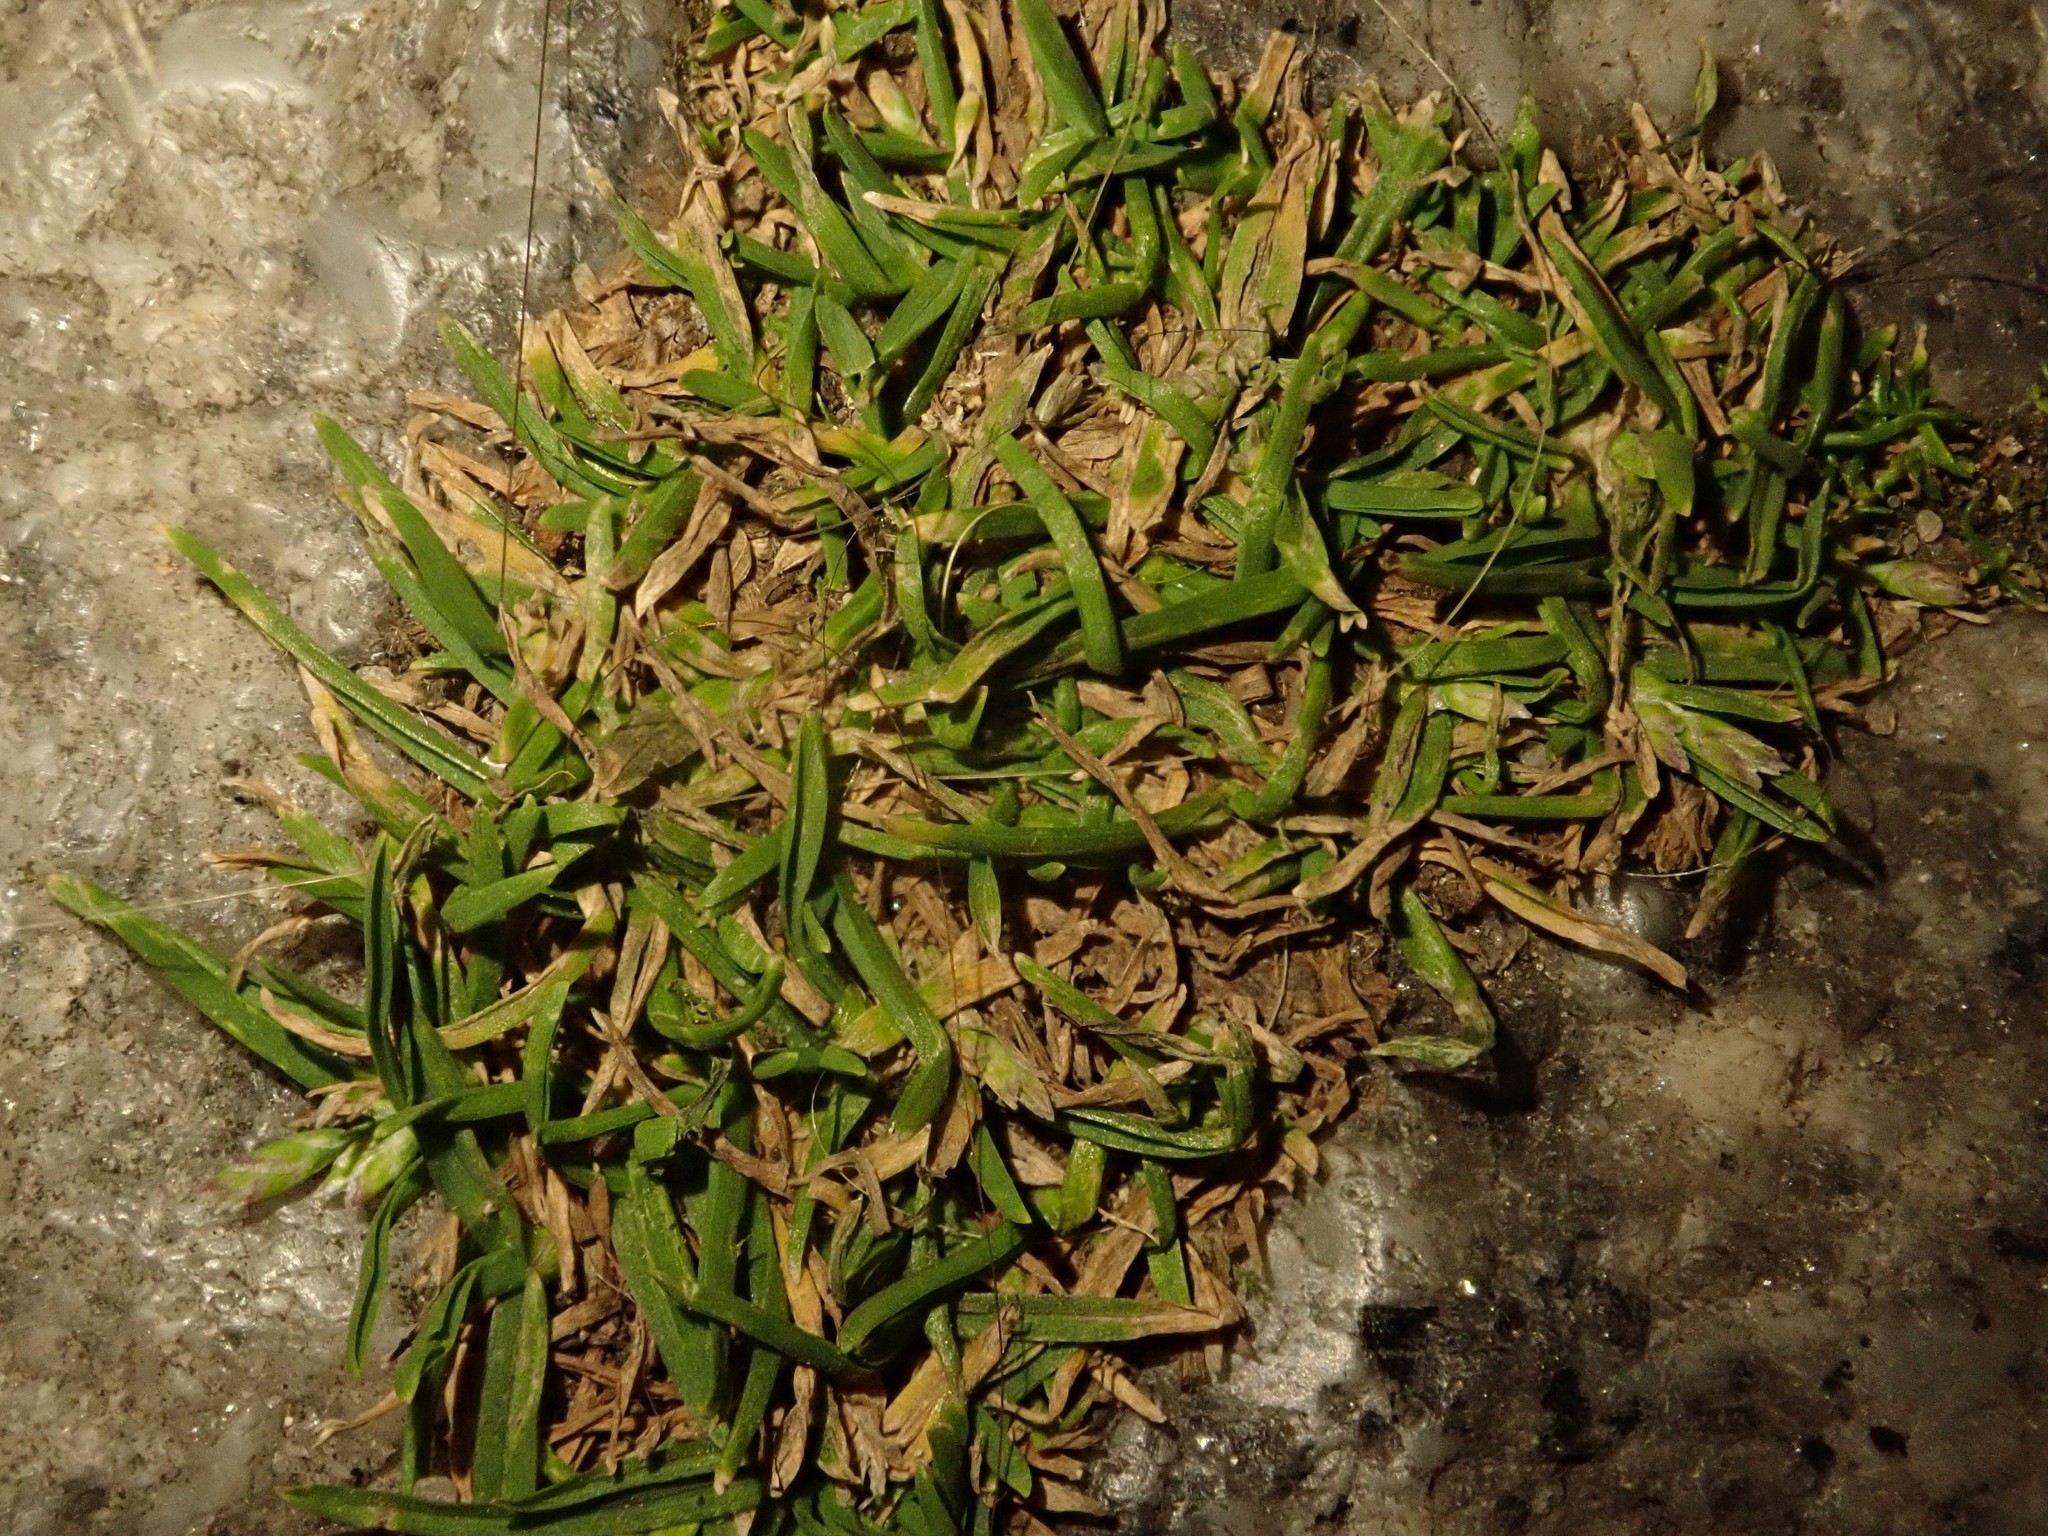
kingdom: Plantae
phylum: Tracheophyta
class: Magnoliopsida
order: Caryophyllales
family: Caryophyllaceae
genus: Sagina
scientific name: Sagina procumbens
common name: Procumbent pearlwort
